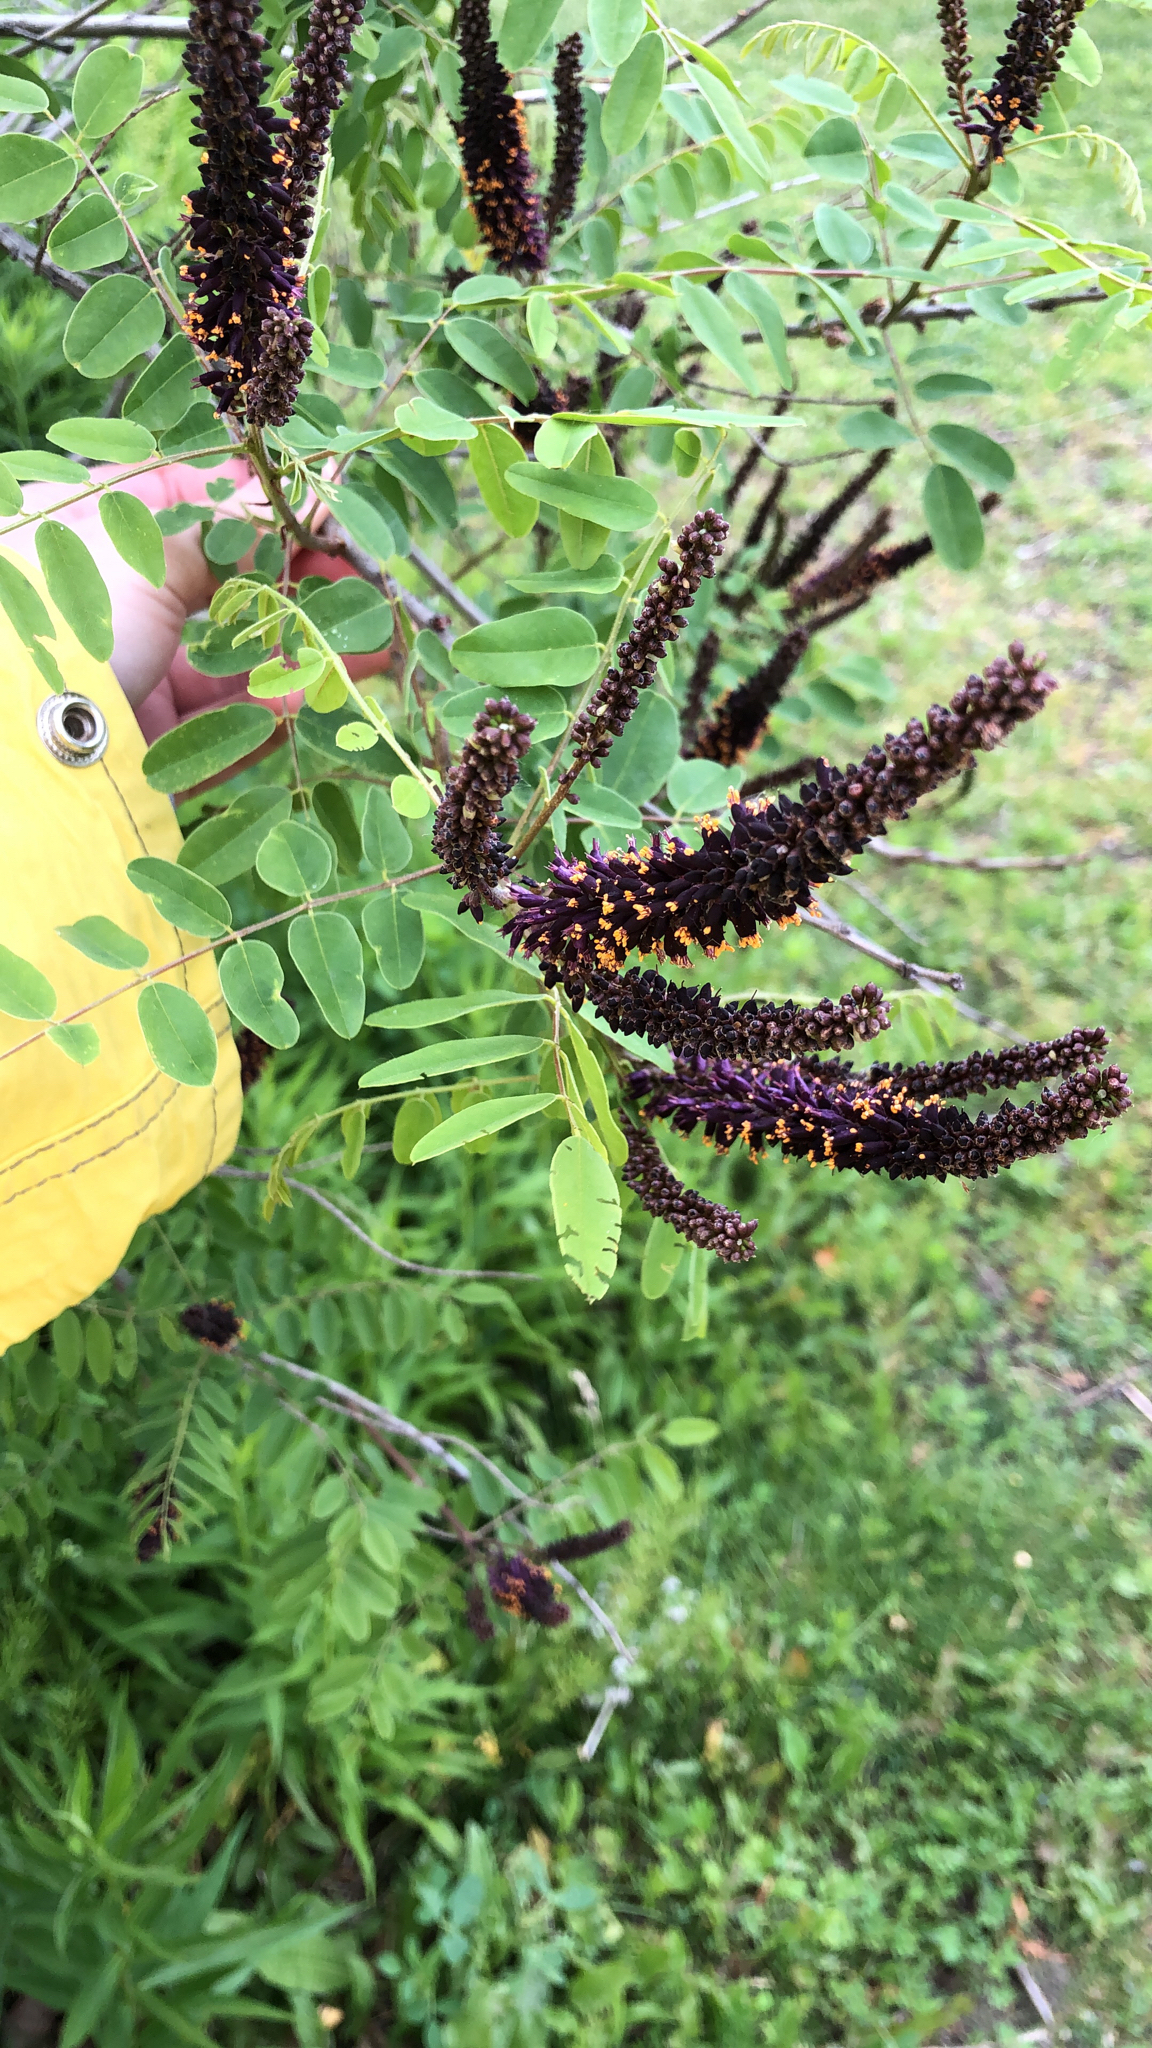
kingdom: Plantae
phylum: Tracheophyta
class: Magnoliopsida
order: Fabales
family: Fabaceae
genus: Amorpha
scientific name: Amorpha fruticosa
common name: False indigo
